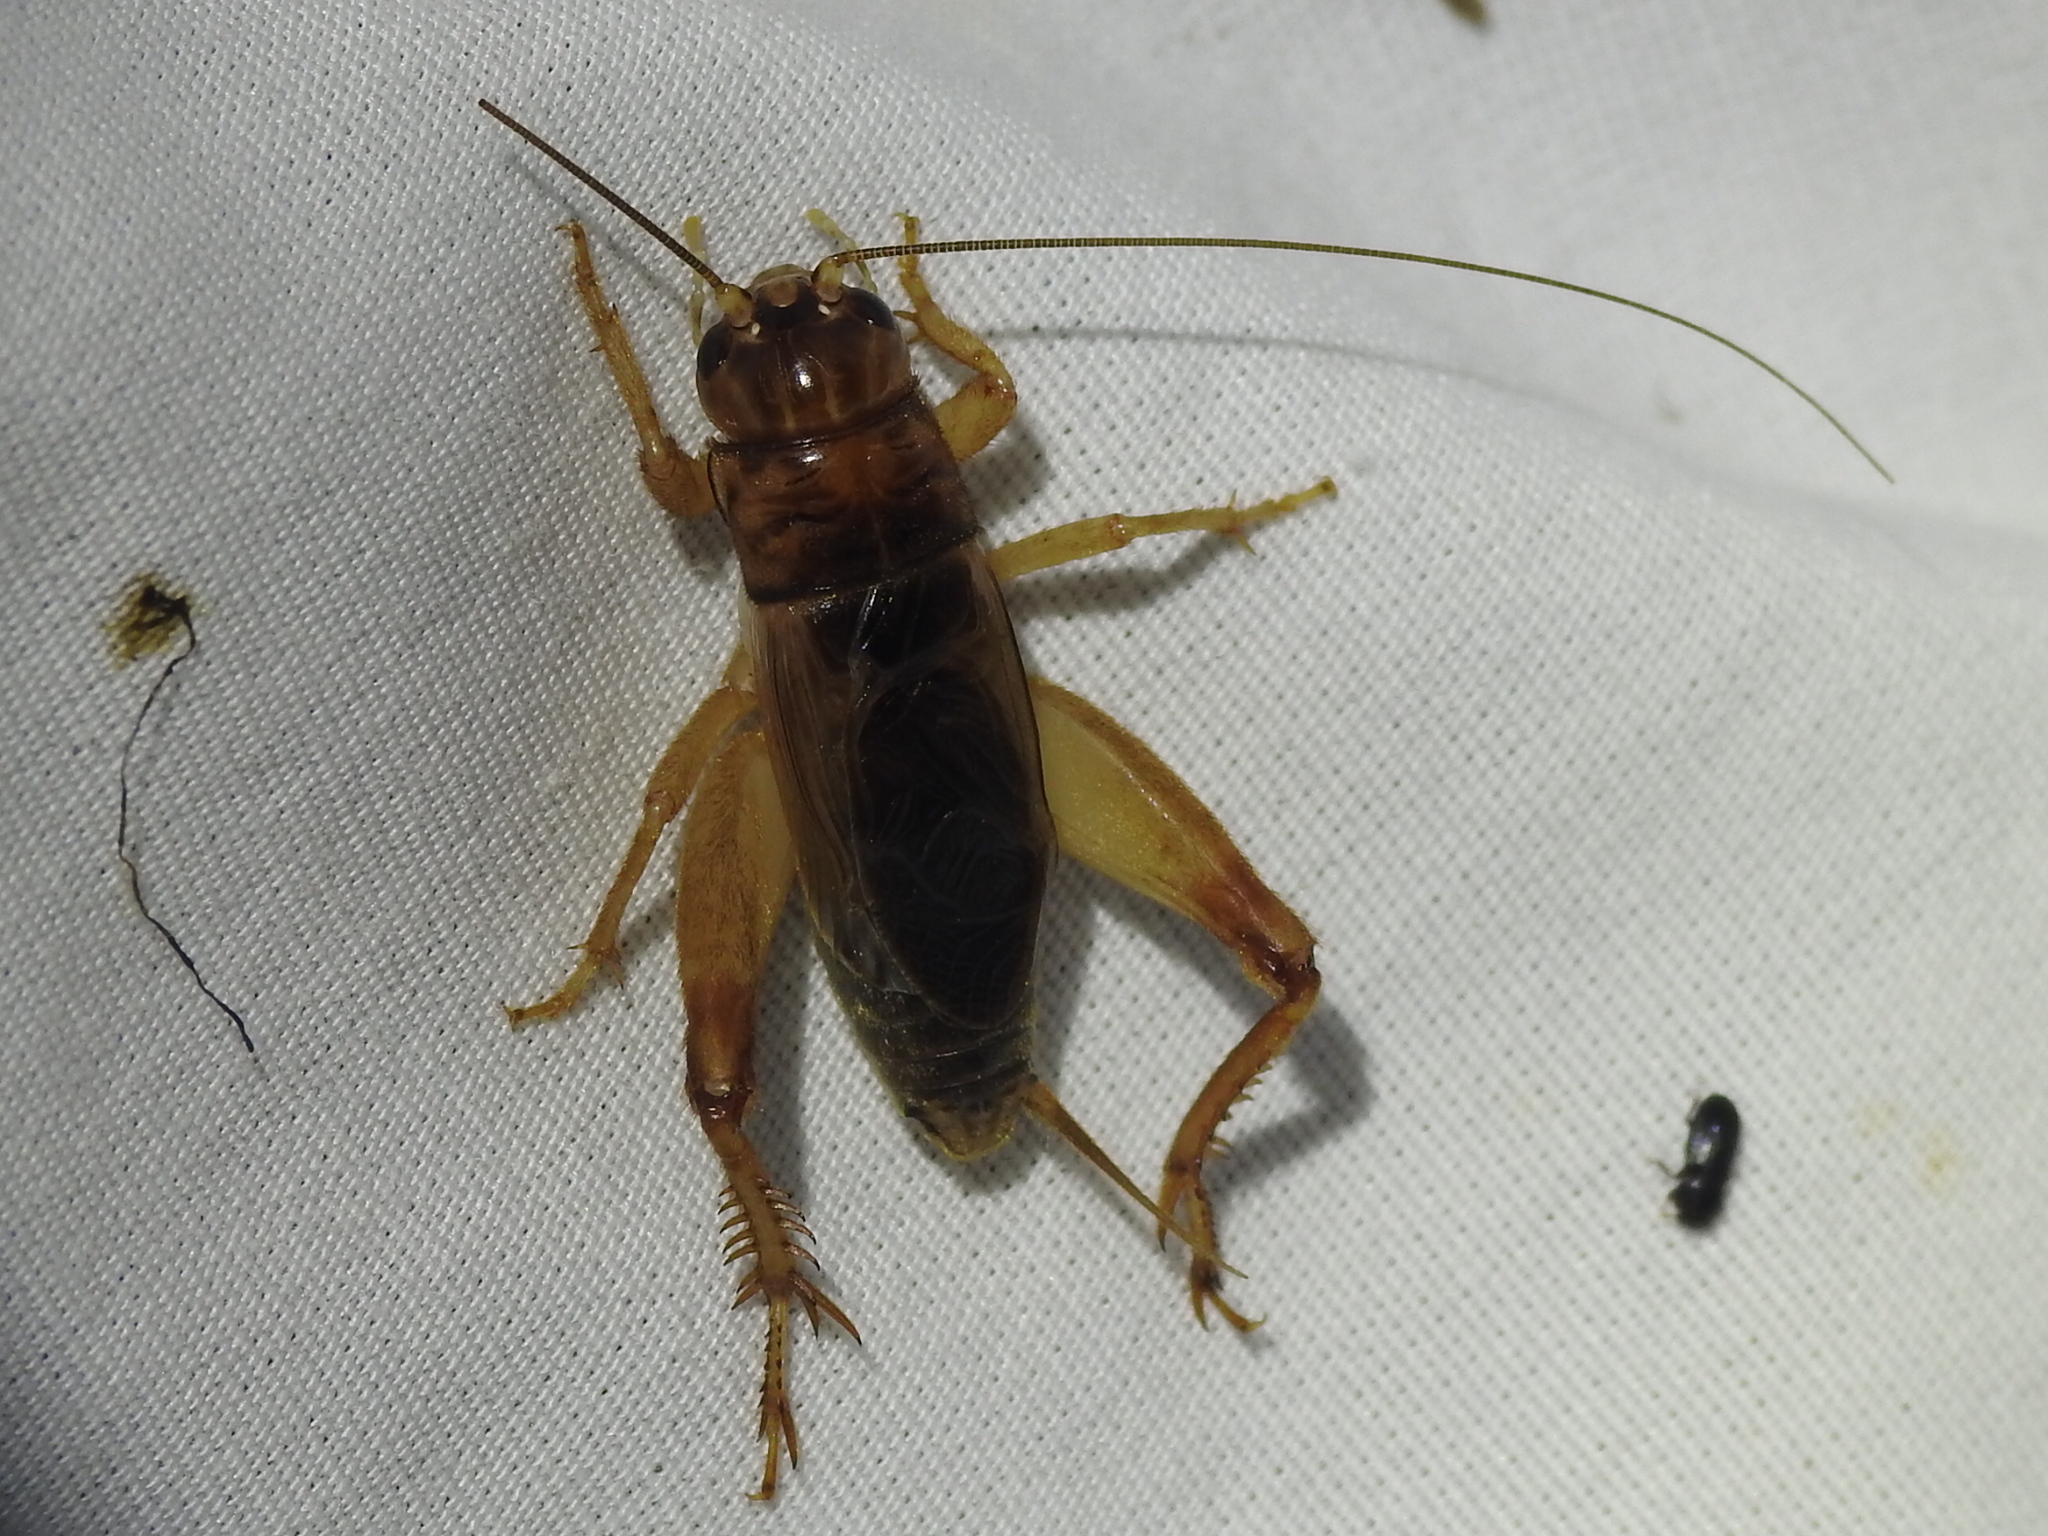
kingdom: Animalia
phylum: Arthropoda
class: Insecta
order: Orthoptera
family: Gryllidae
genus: Anurogryllus
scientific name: Anurogryllus arboreus
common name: Common short-tailed cricket
